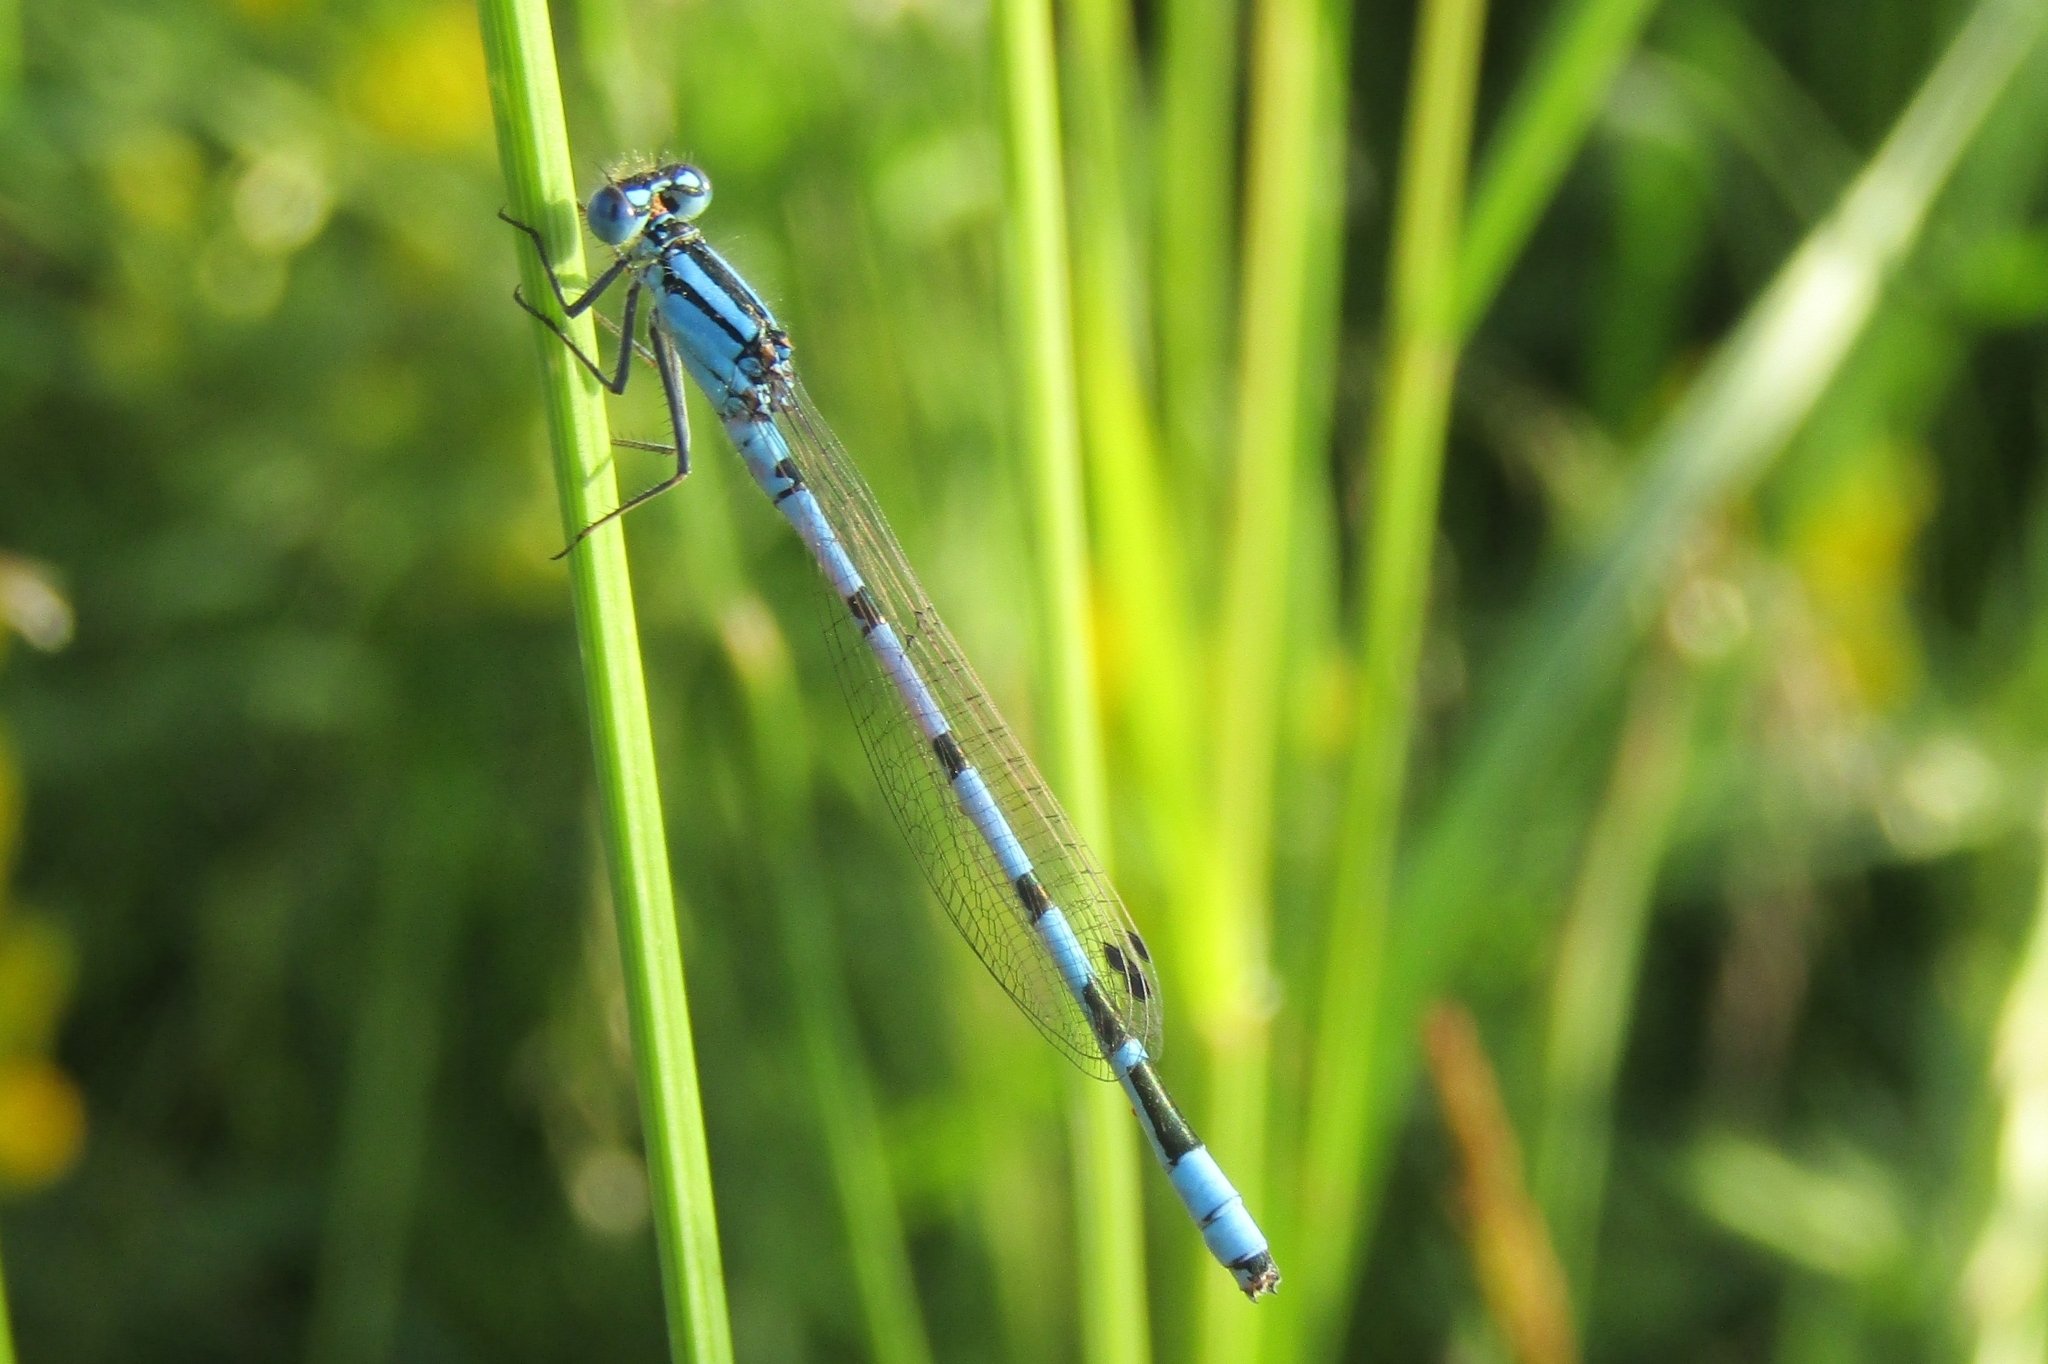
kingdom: Animalia
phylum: Arthropoda
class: Insecta
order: Odonata
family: Coenagrionidae
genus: Enallagma
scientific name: Enallagma cyathigerum
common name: Common blue damselfly
